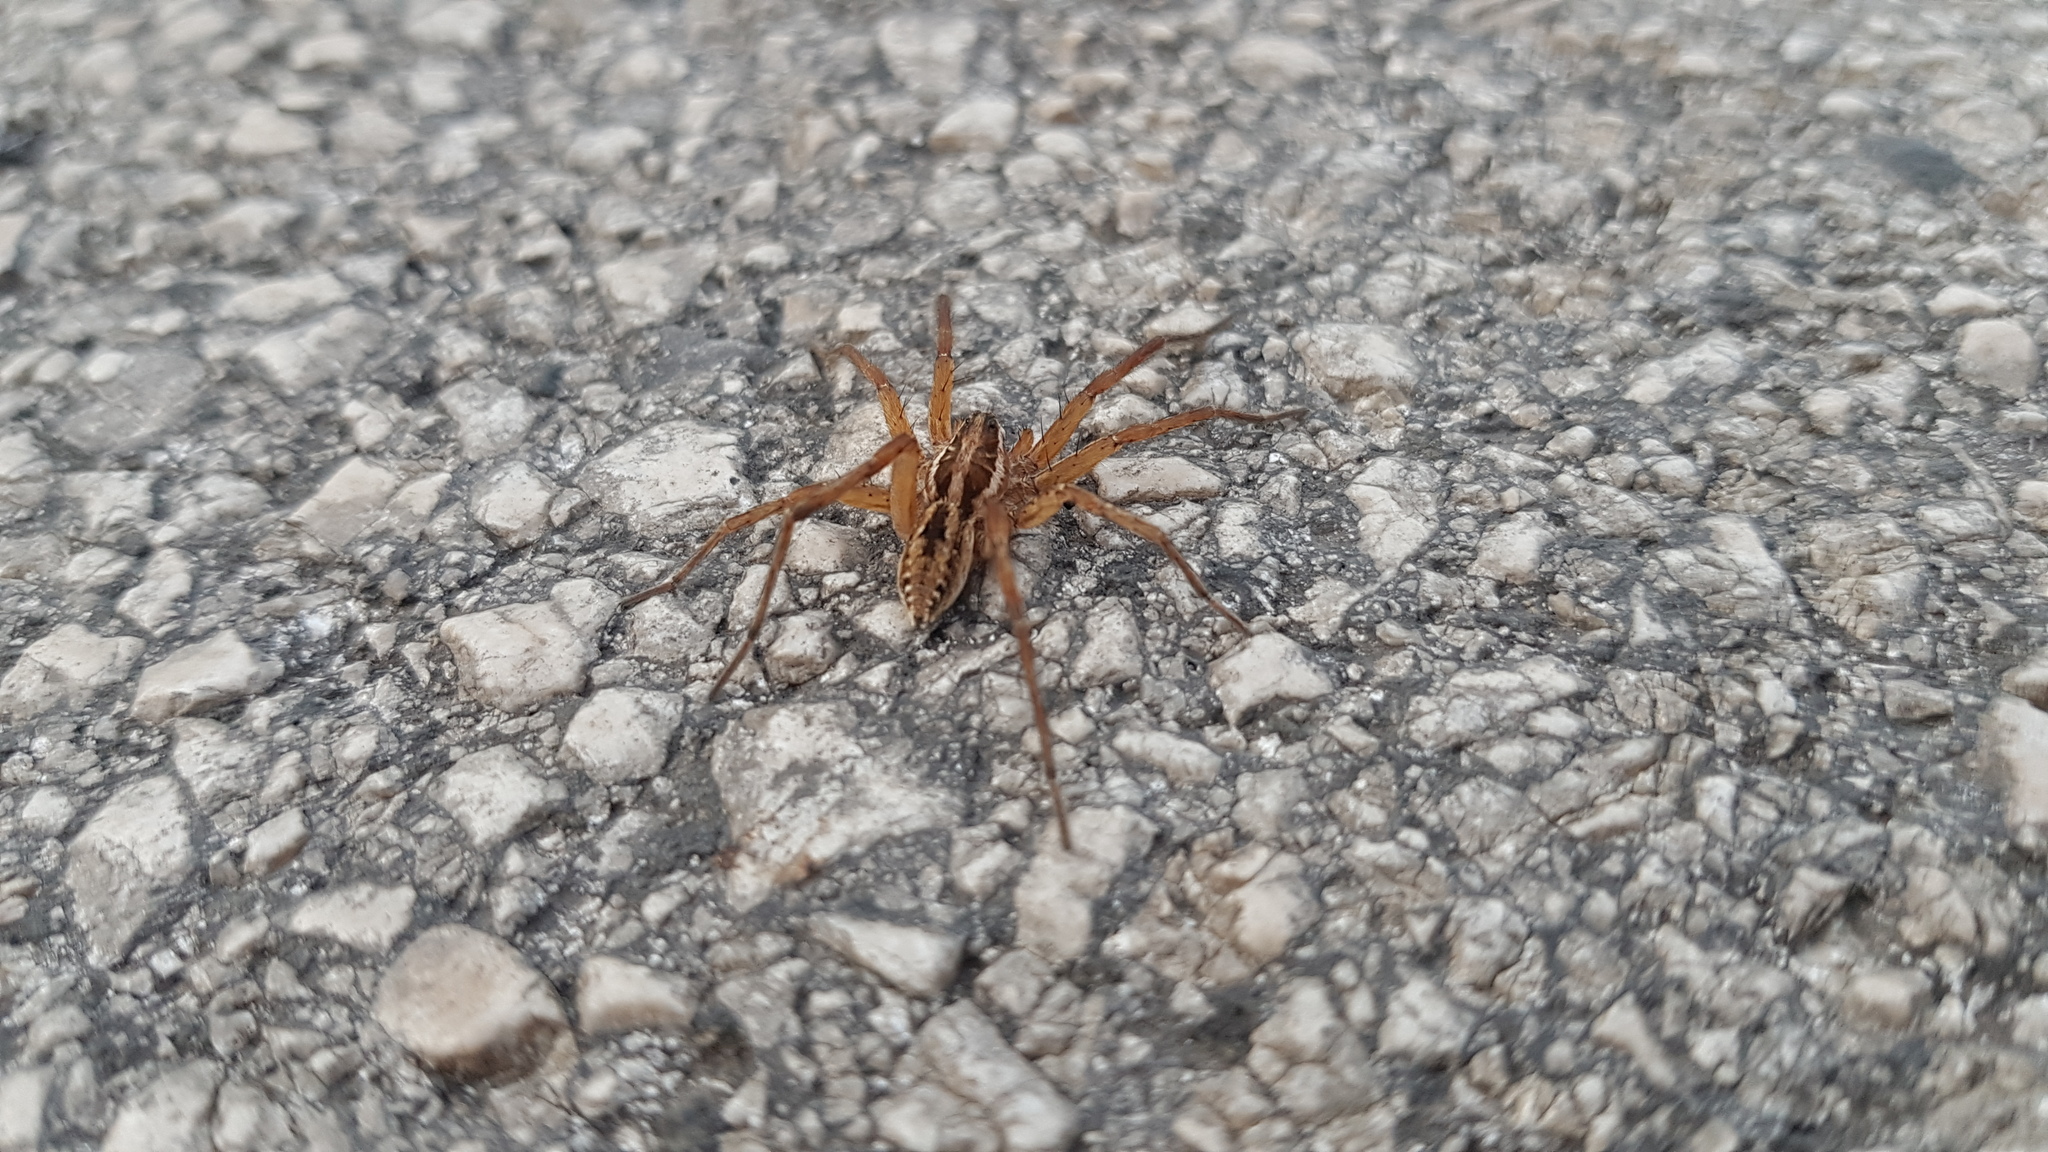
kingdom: Animalia
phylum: Arthropoda
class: Arachnida
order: Araneae
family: Lycosidae
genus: Hogna
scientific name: Hogna radiata
